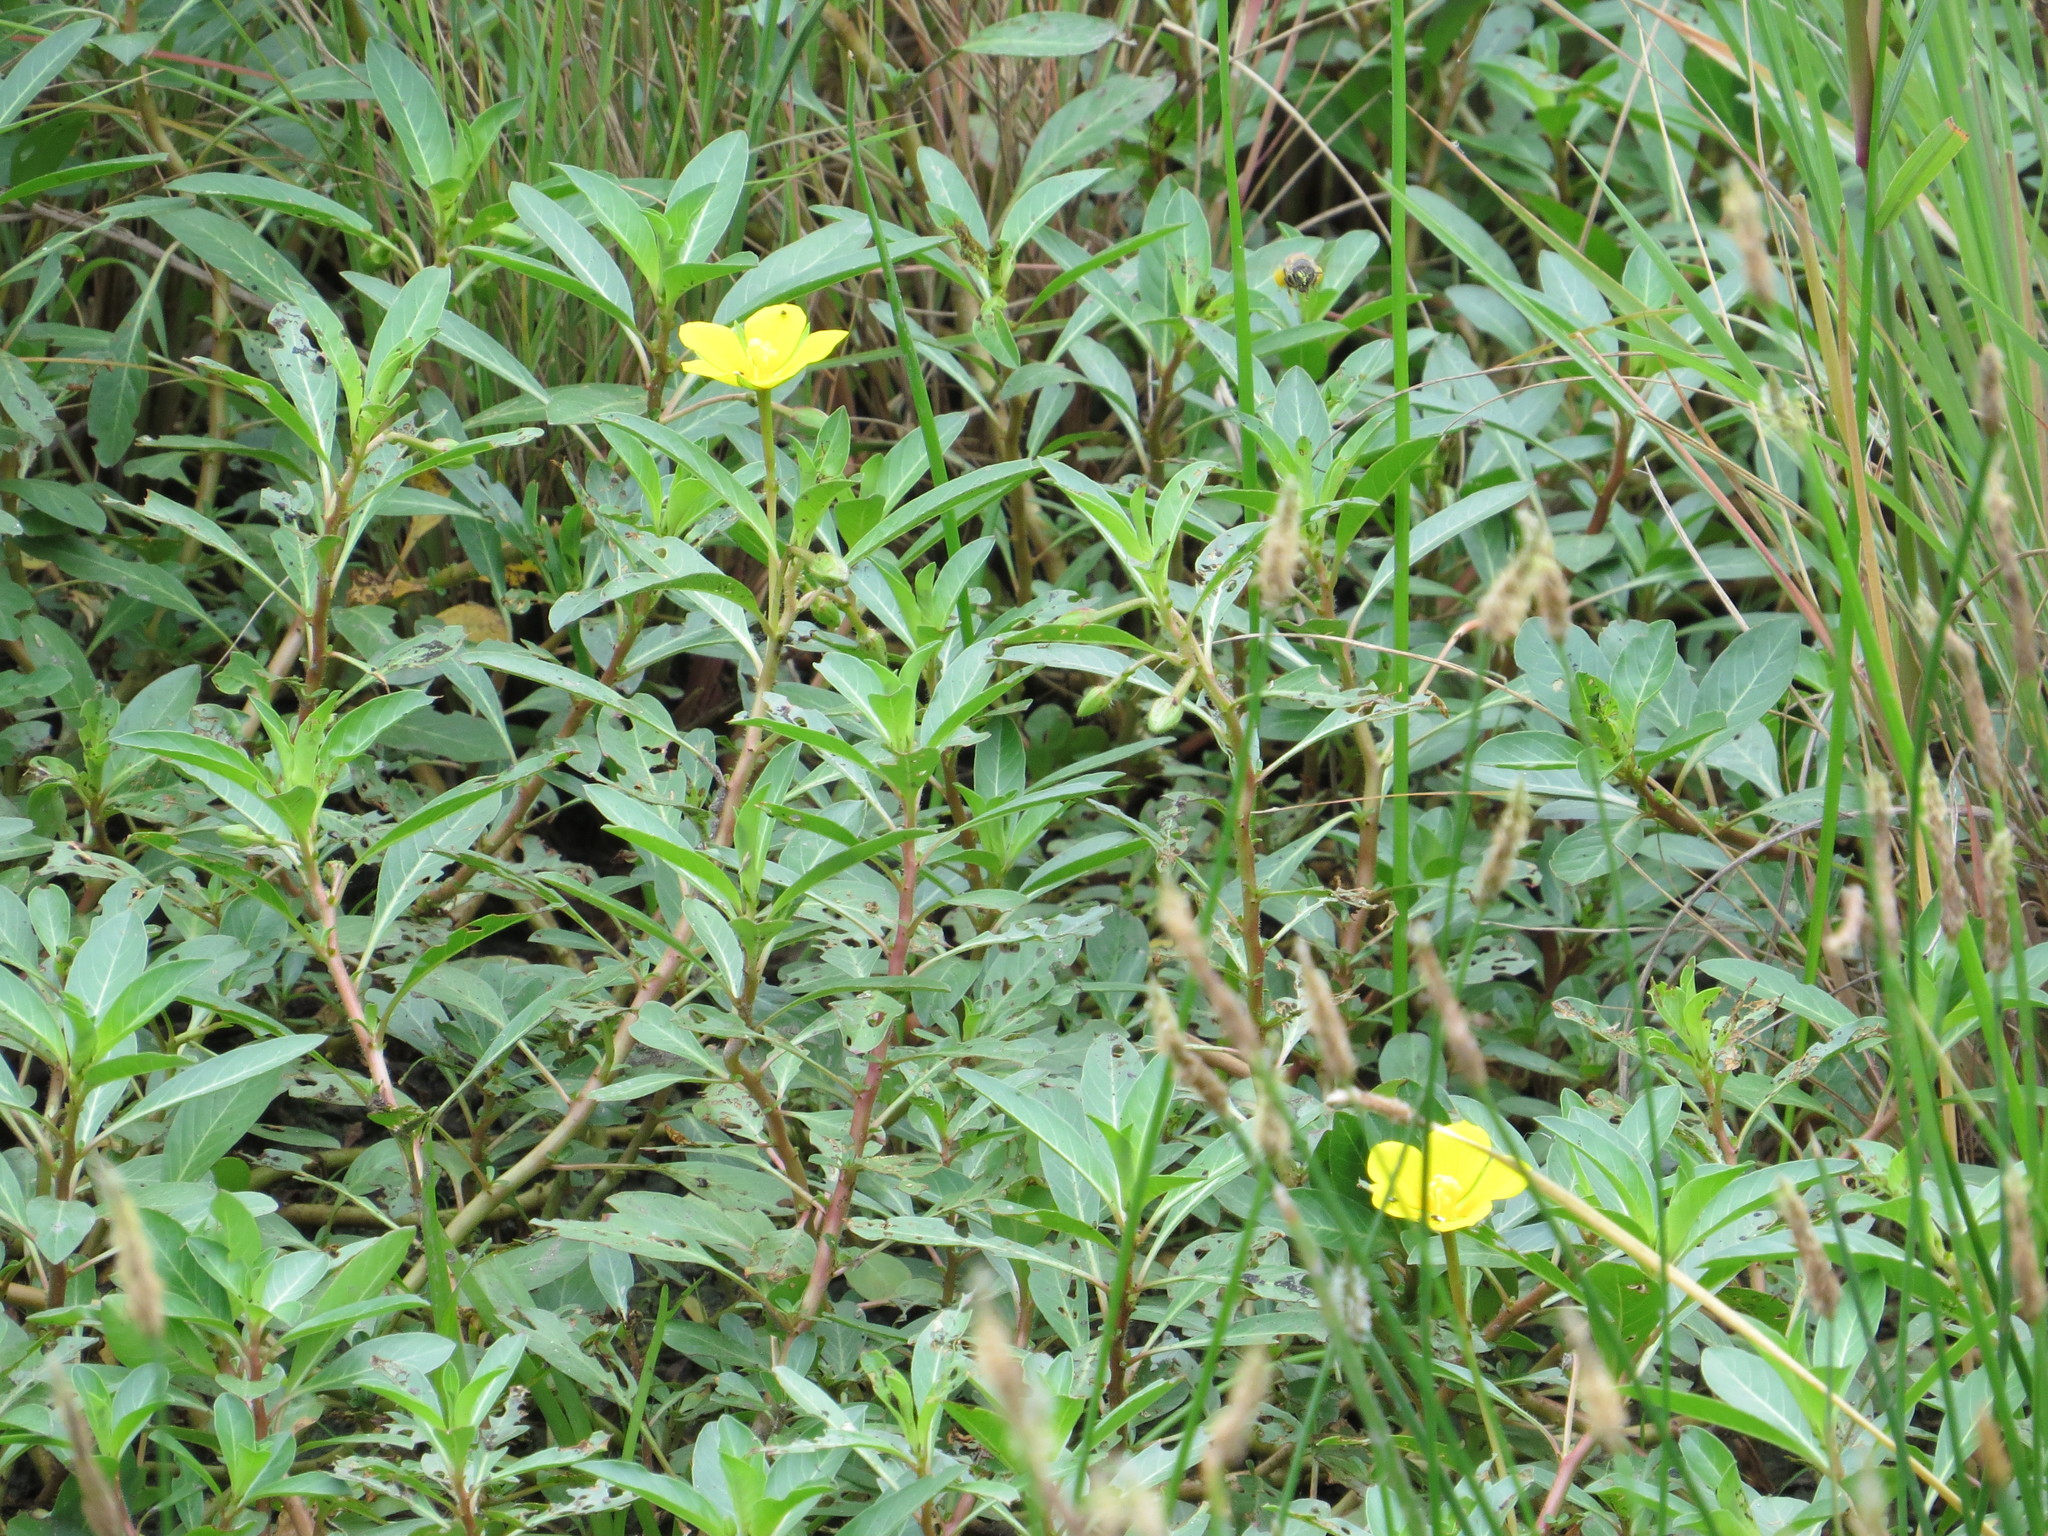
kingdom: Plantae
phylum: Tracheophyta
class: Magnoliopsida
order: Myrtales
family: Onagraceae
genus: Ludwigia
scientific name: Ludwigia peploides
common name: Floating primrose-willow
